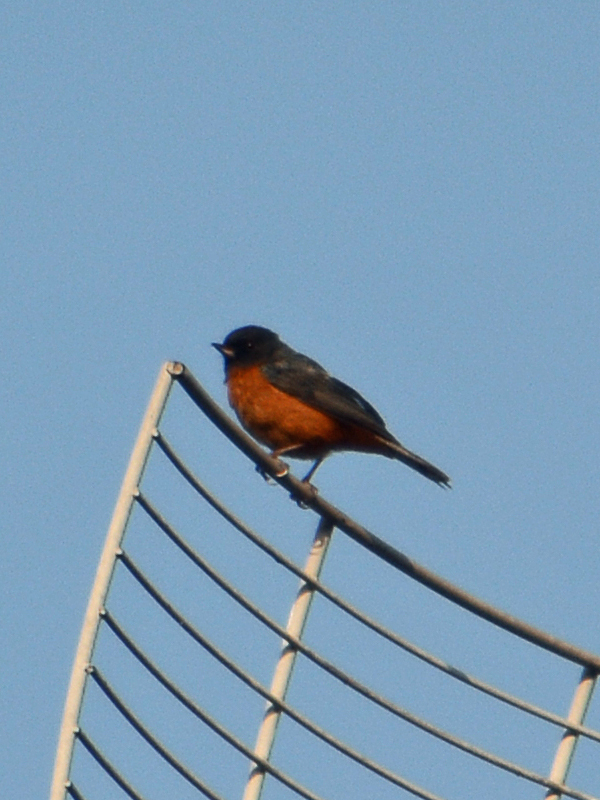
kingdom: Animalia
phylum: Chordata
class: Aves
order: Passeriformes
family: Thraupidae
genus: Diglossa
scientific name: Diglossa baritula
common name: Cinnamon-bellied flowerpiercer
